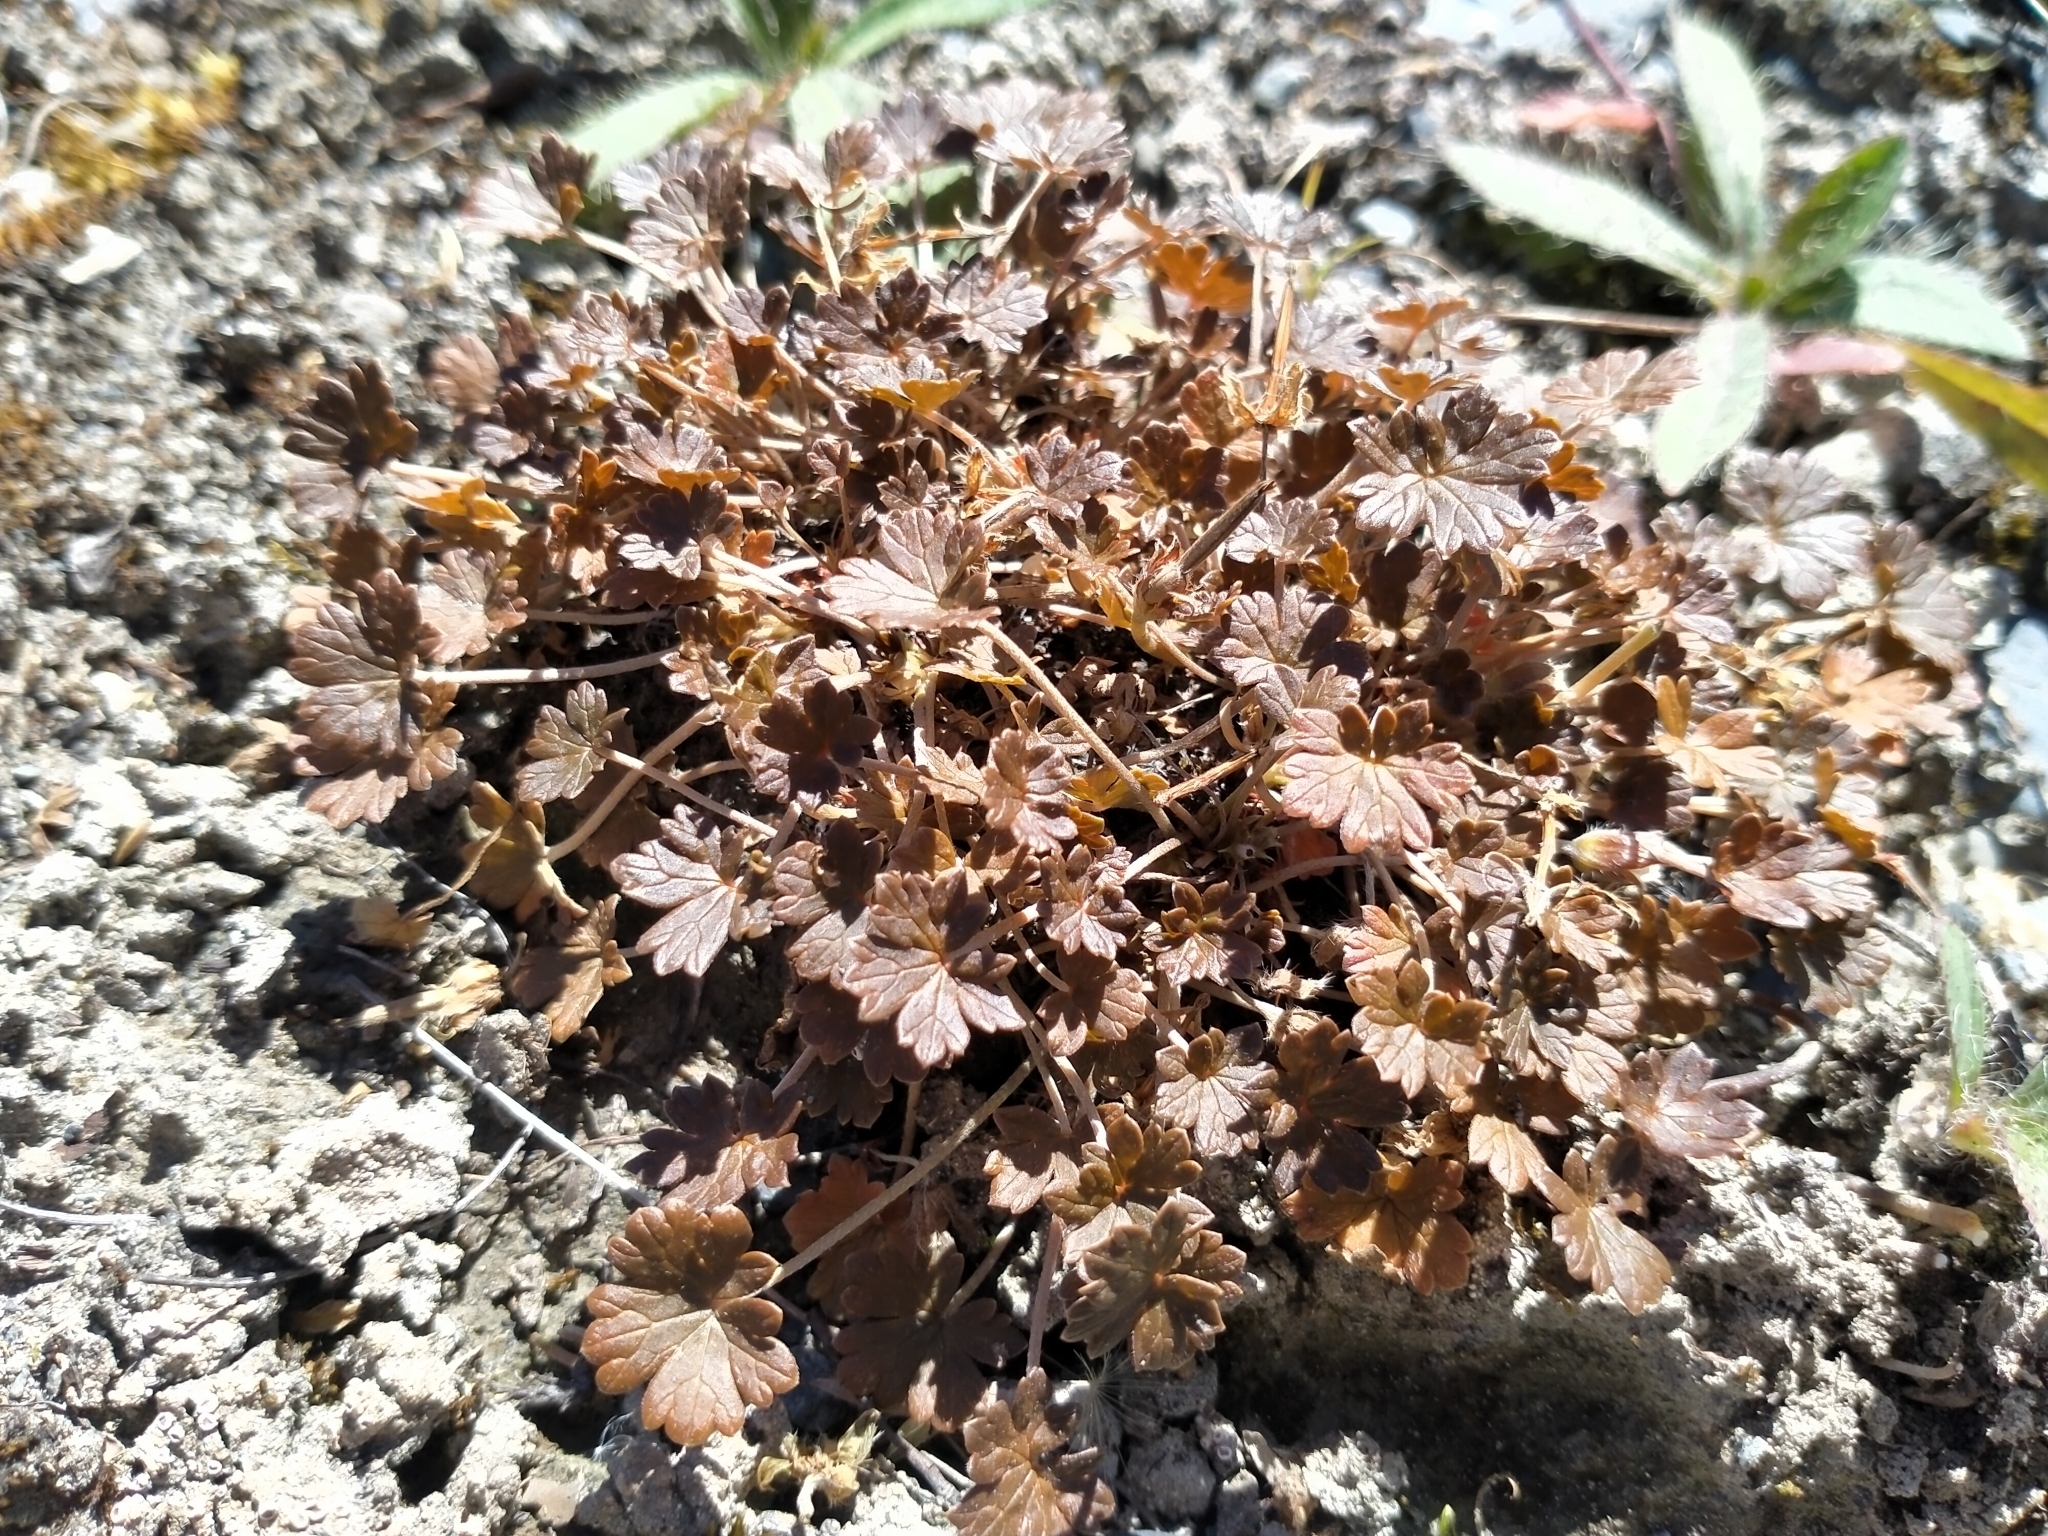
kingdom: Plantae
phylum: Tracheophyta
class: Magnoliopsida
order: Geraniales
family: Geraniaceae
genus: Geranium
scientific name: Geranium brevicaule
